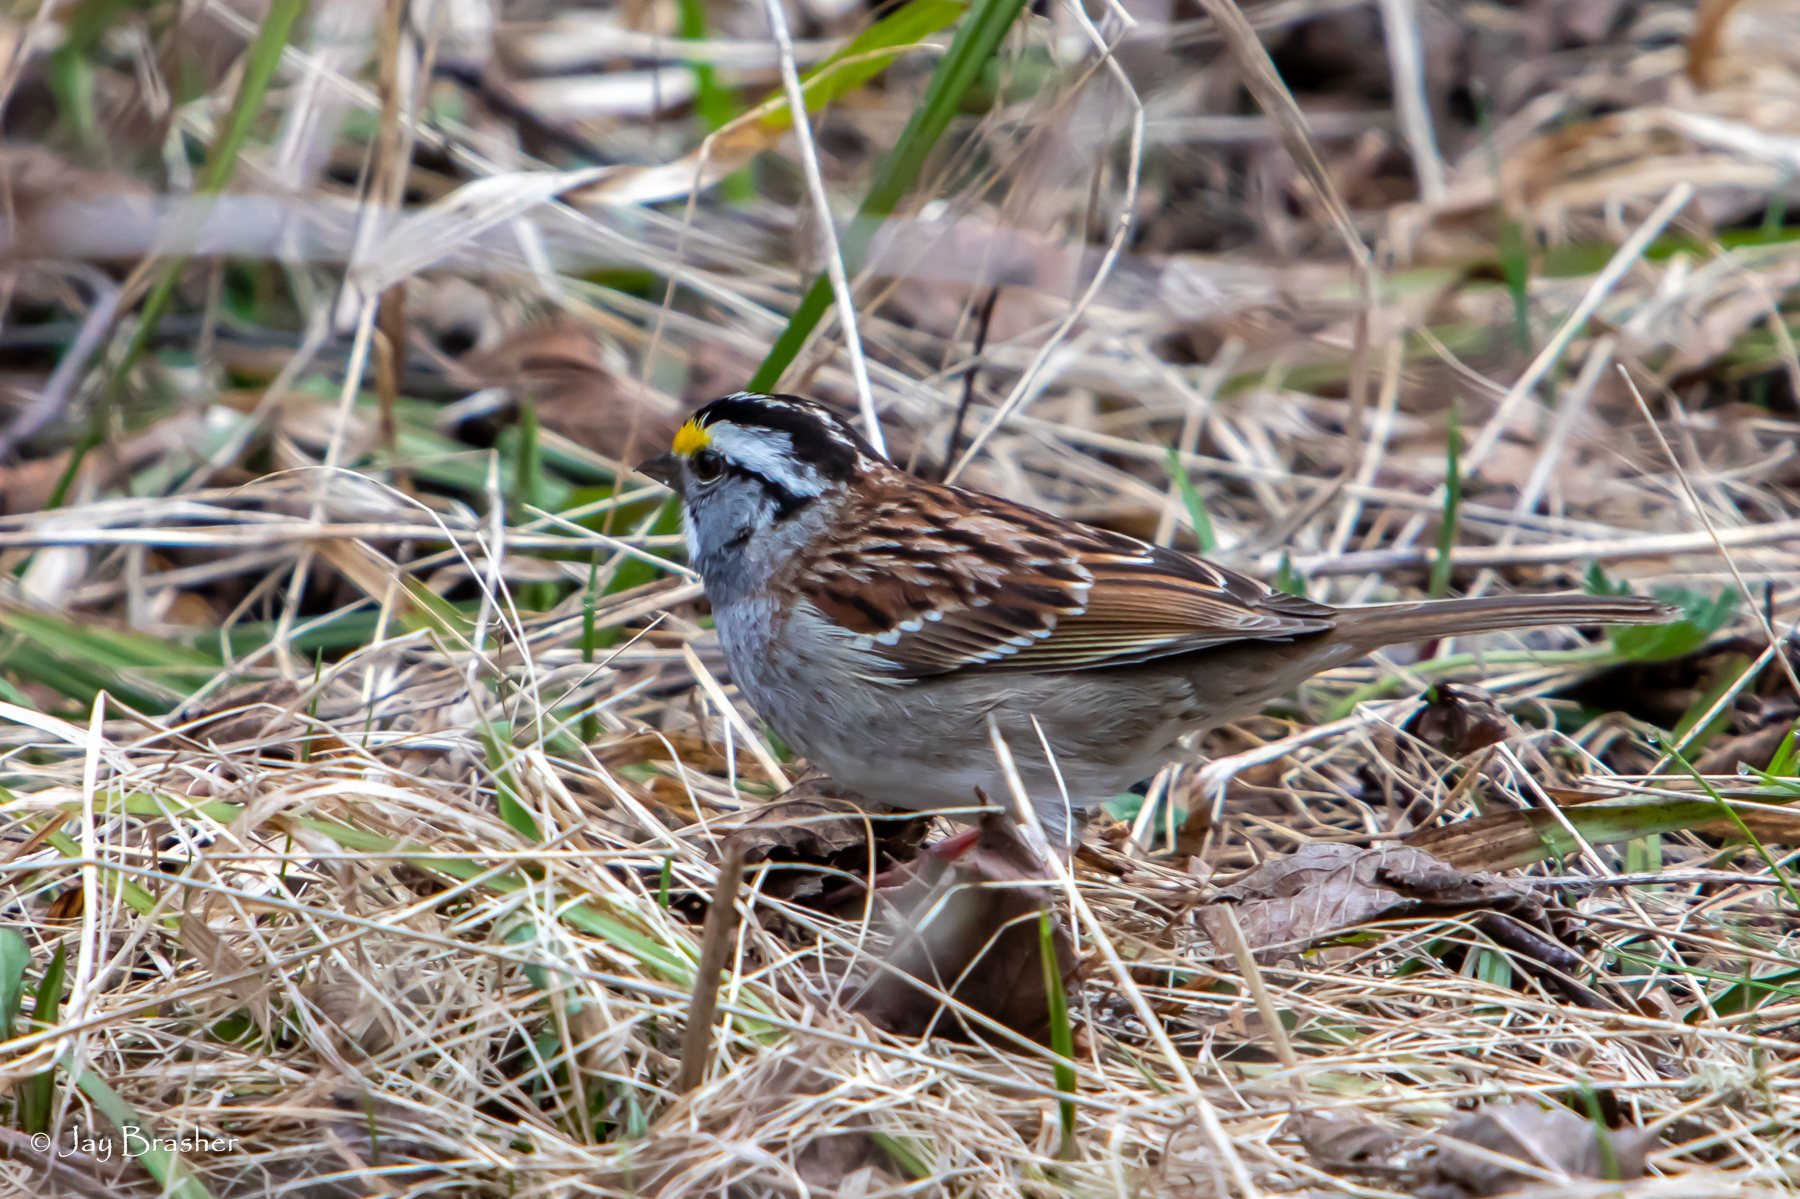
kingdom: Animalia
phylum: Chordata
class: Aves
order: Passeriformes
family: Passerellidae
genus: Zonotrichia
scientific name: Zonotrichia albicollis
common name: White-throated sparrow
